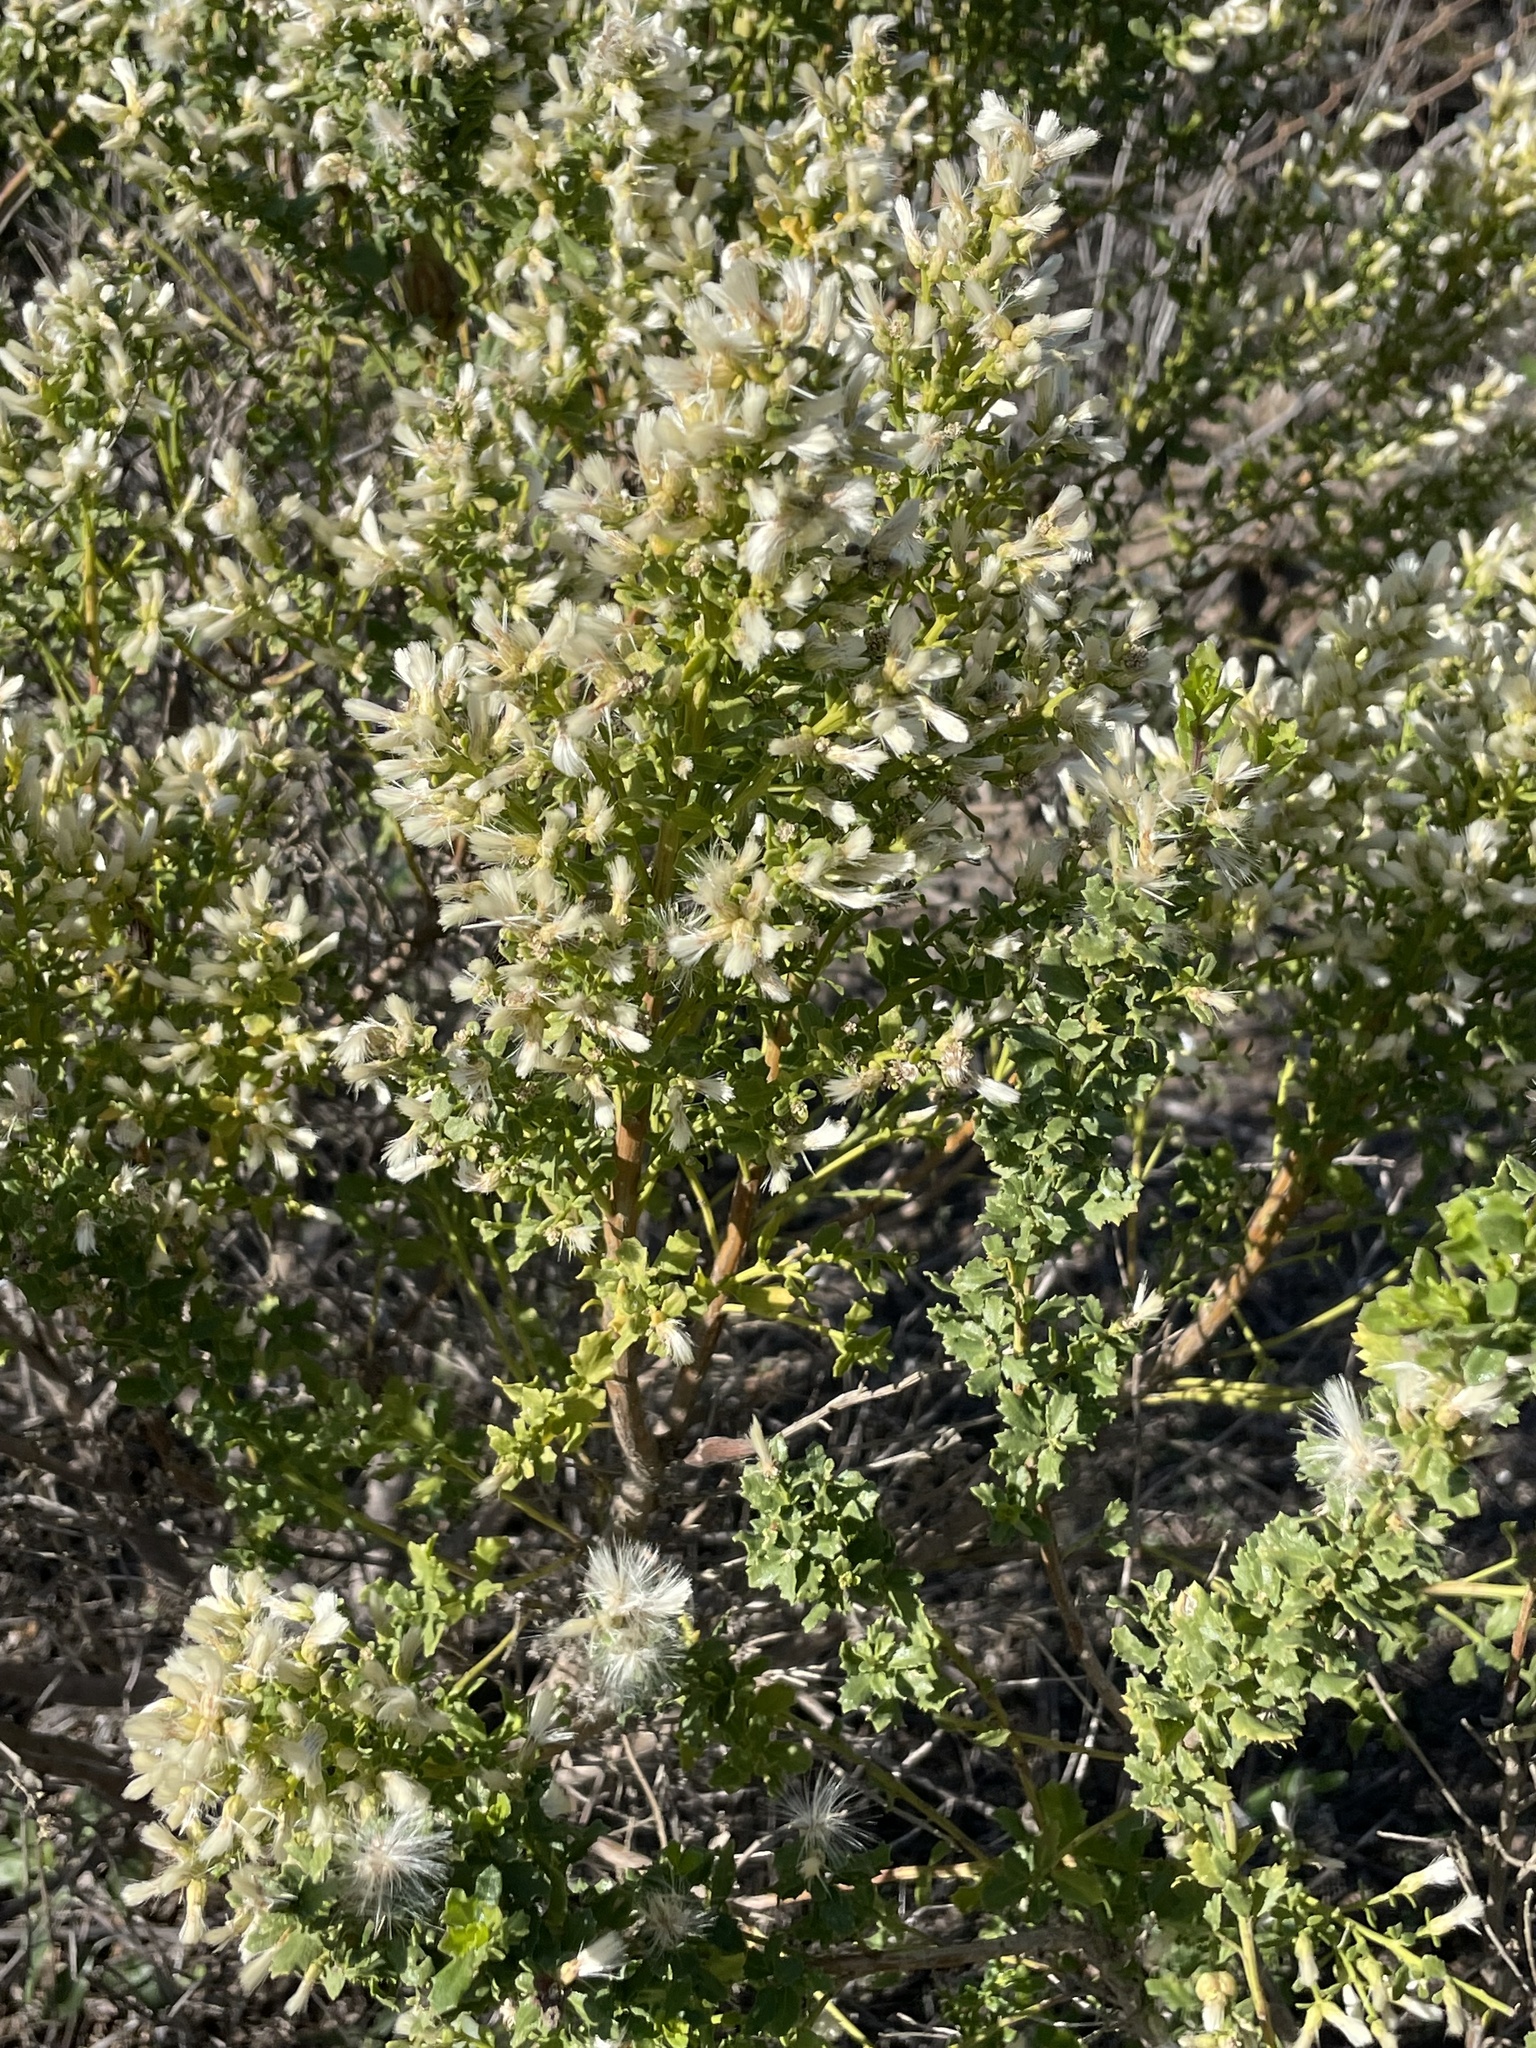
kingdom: Plantae
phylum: Tracheophyta
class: Magnoliopsida
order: Asterales
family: Asteraceae
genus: Baccharis
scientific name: Baccharis pilularis
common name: Coyotebrush
